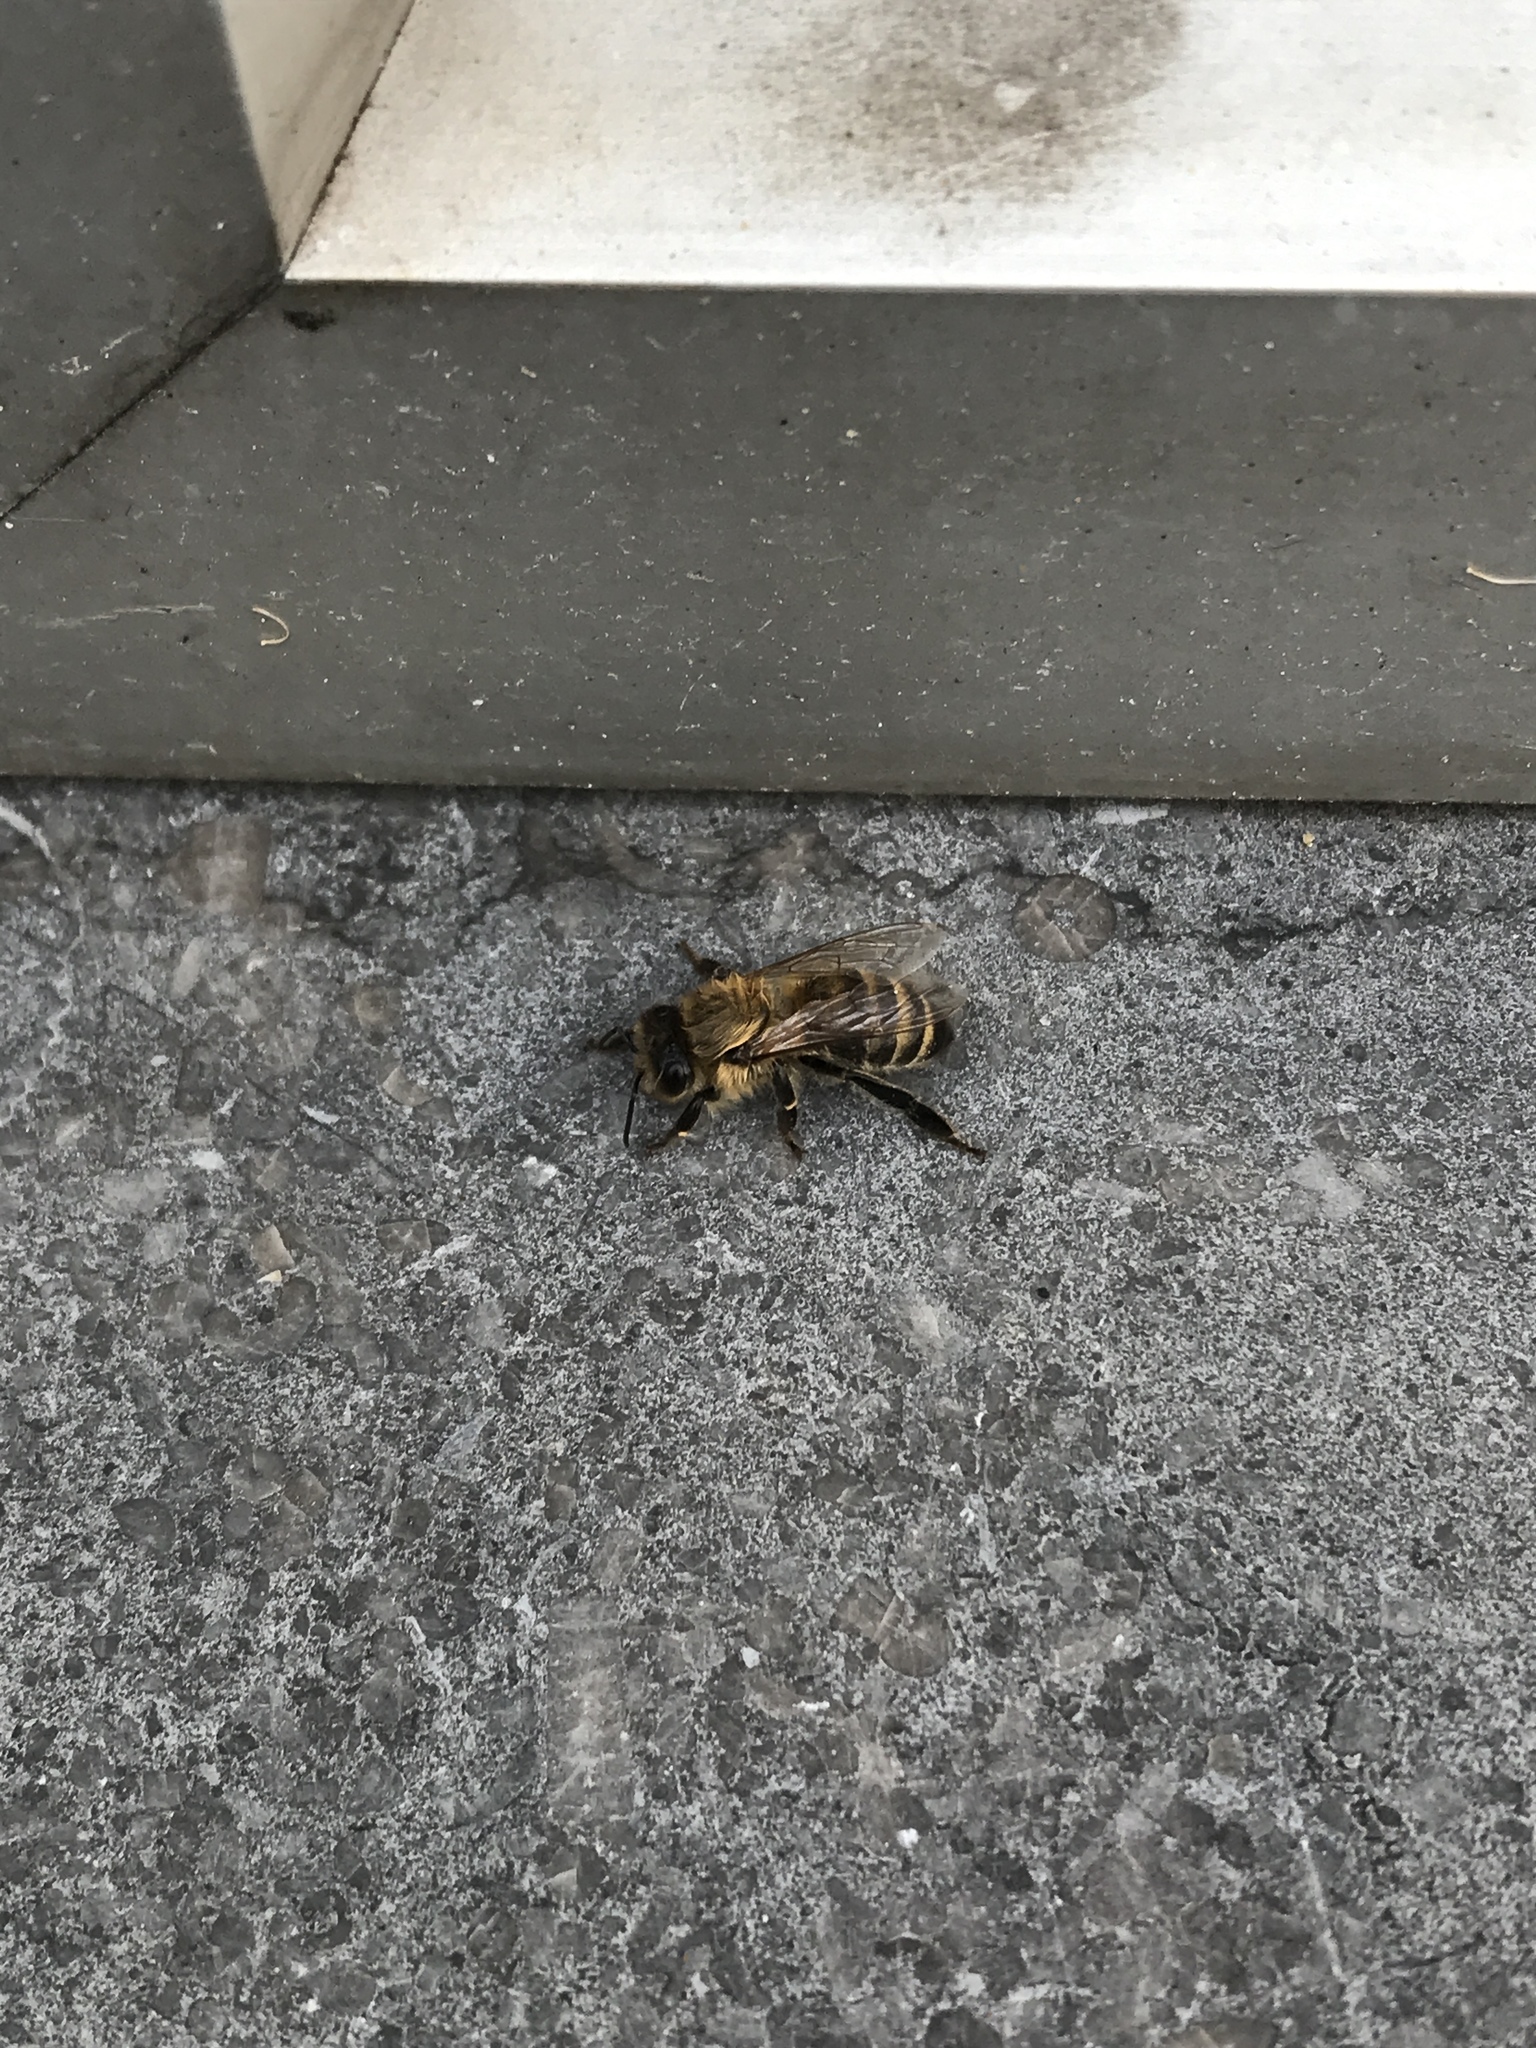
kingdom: Animalia
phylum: Arthropoda
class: Insecta
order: Hymenoptera
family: Apidae
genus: Apis
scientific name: Apis mellifera
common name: Honey bee
